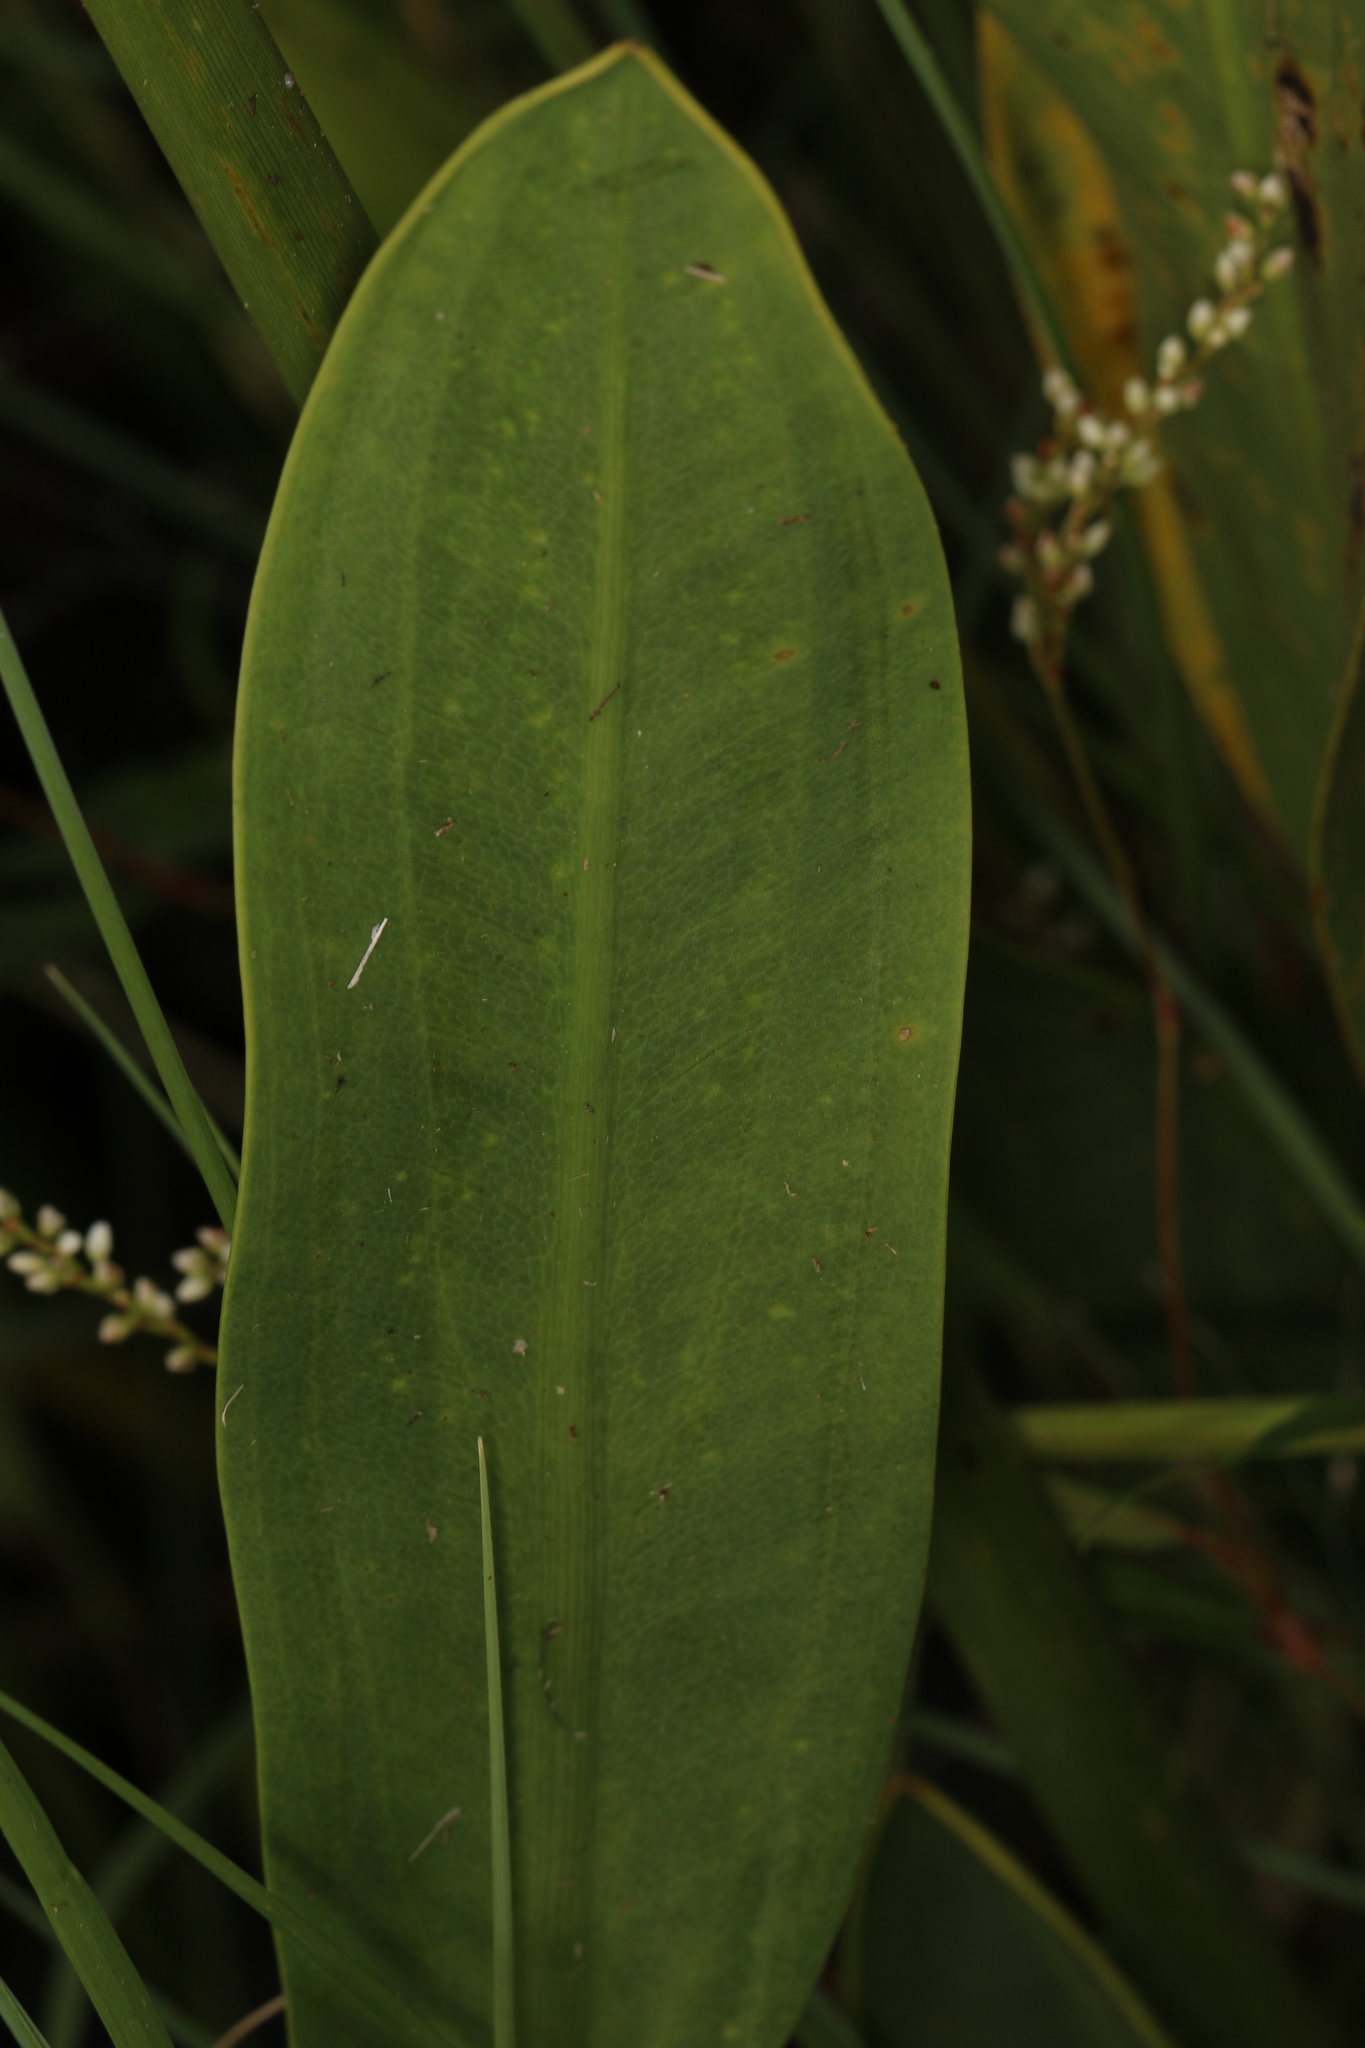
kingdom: Plantae
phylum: Tracheophyta
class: Liliopsida
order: Alismatales
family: Alismataceae
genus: Sagittaria
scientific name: Sagittaria lancifolia
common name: Lance-leaf arrowhead
